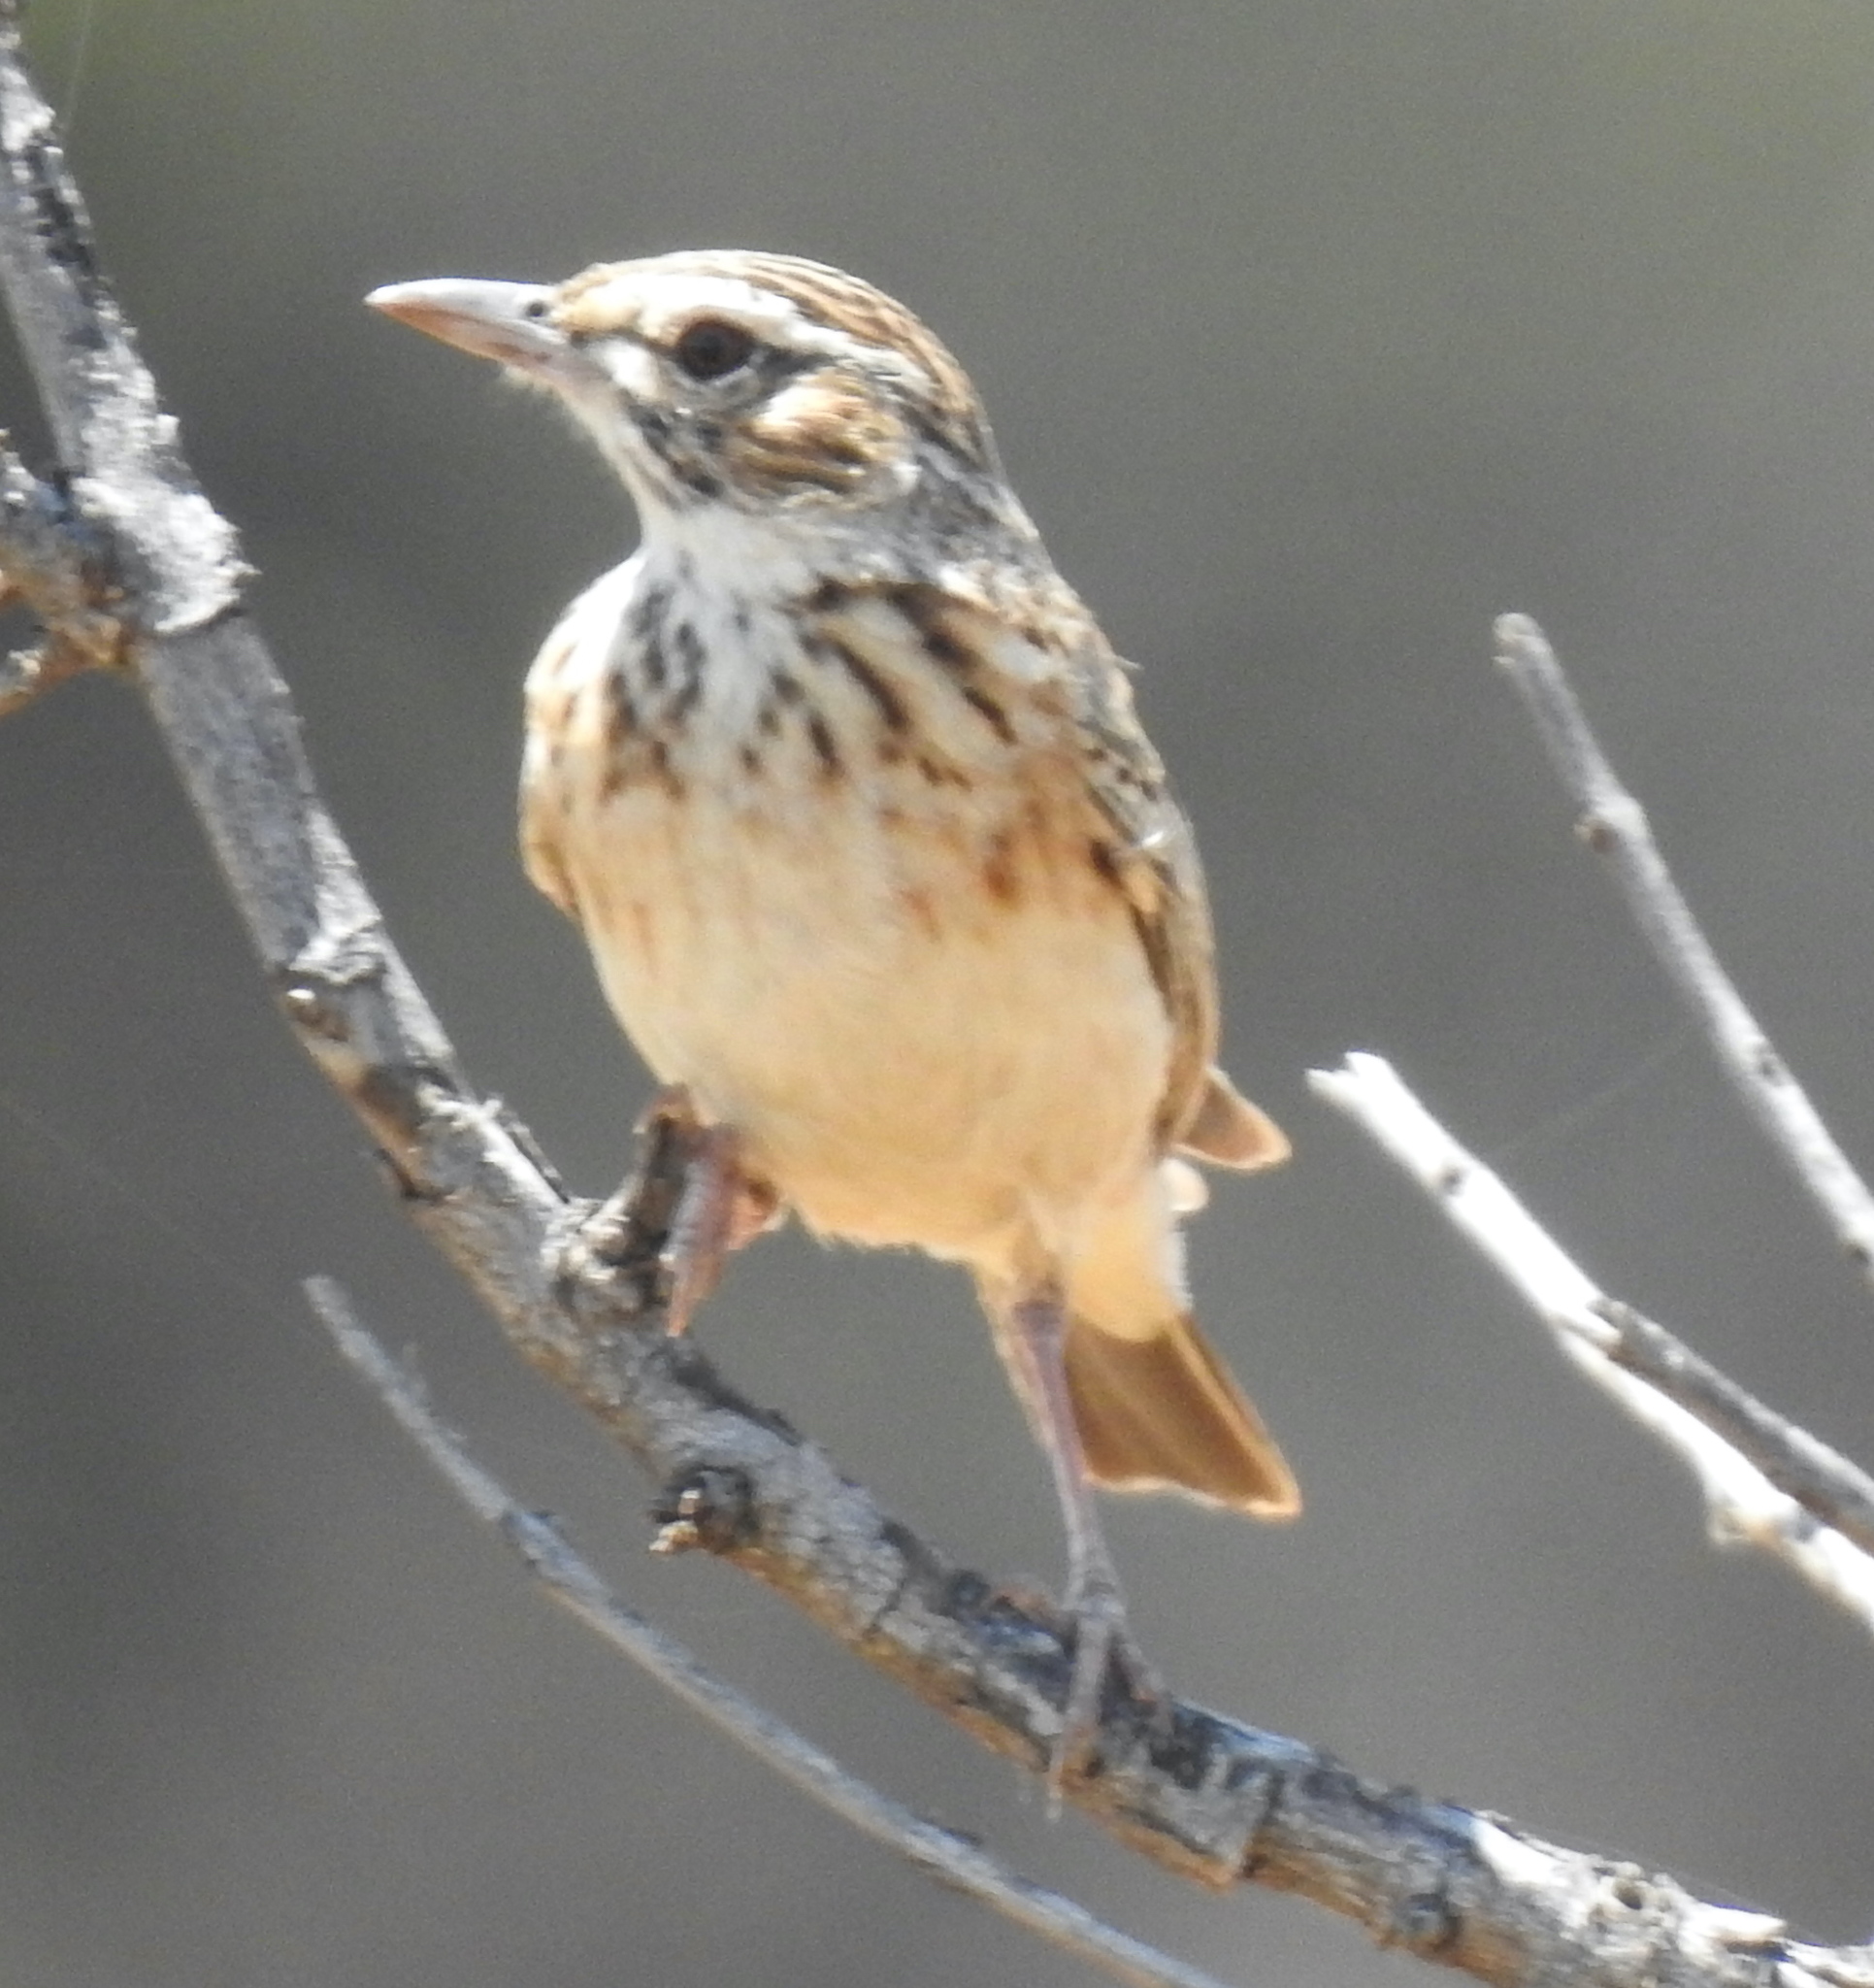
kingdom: Animalia
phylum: Chordata
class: Aves
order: Passeriformes
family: Alaudidae
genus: Calendulauda
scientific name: Calendulauda sabota
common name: Sabota lark
